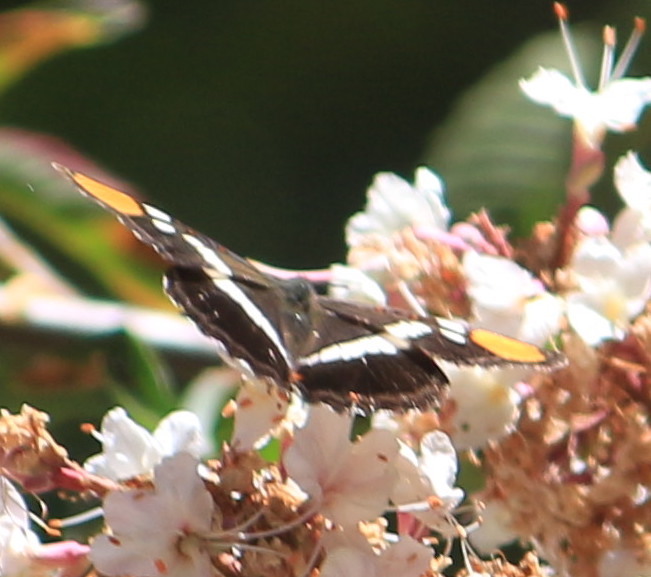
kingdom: Animalia
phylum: Arthropoda
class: Insecta
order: Lepidoptera
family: Nymphalidae
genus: Limenitis
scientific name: Limenitis bredowii
